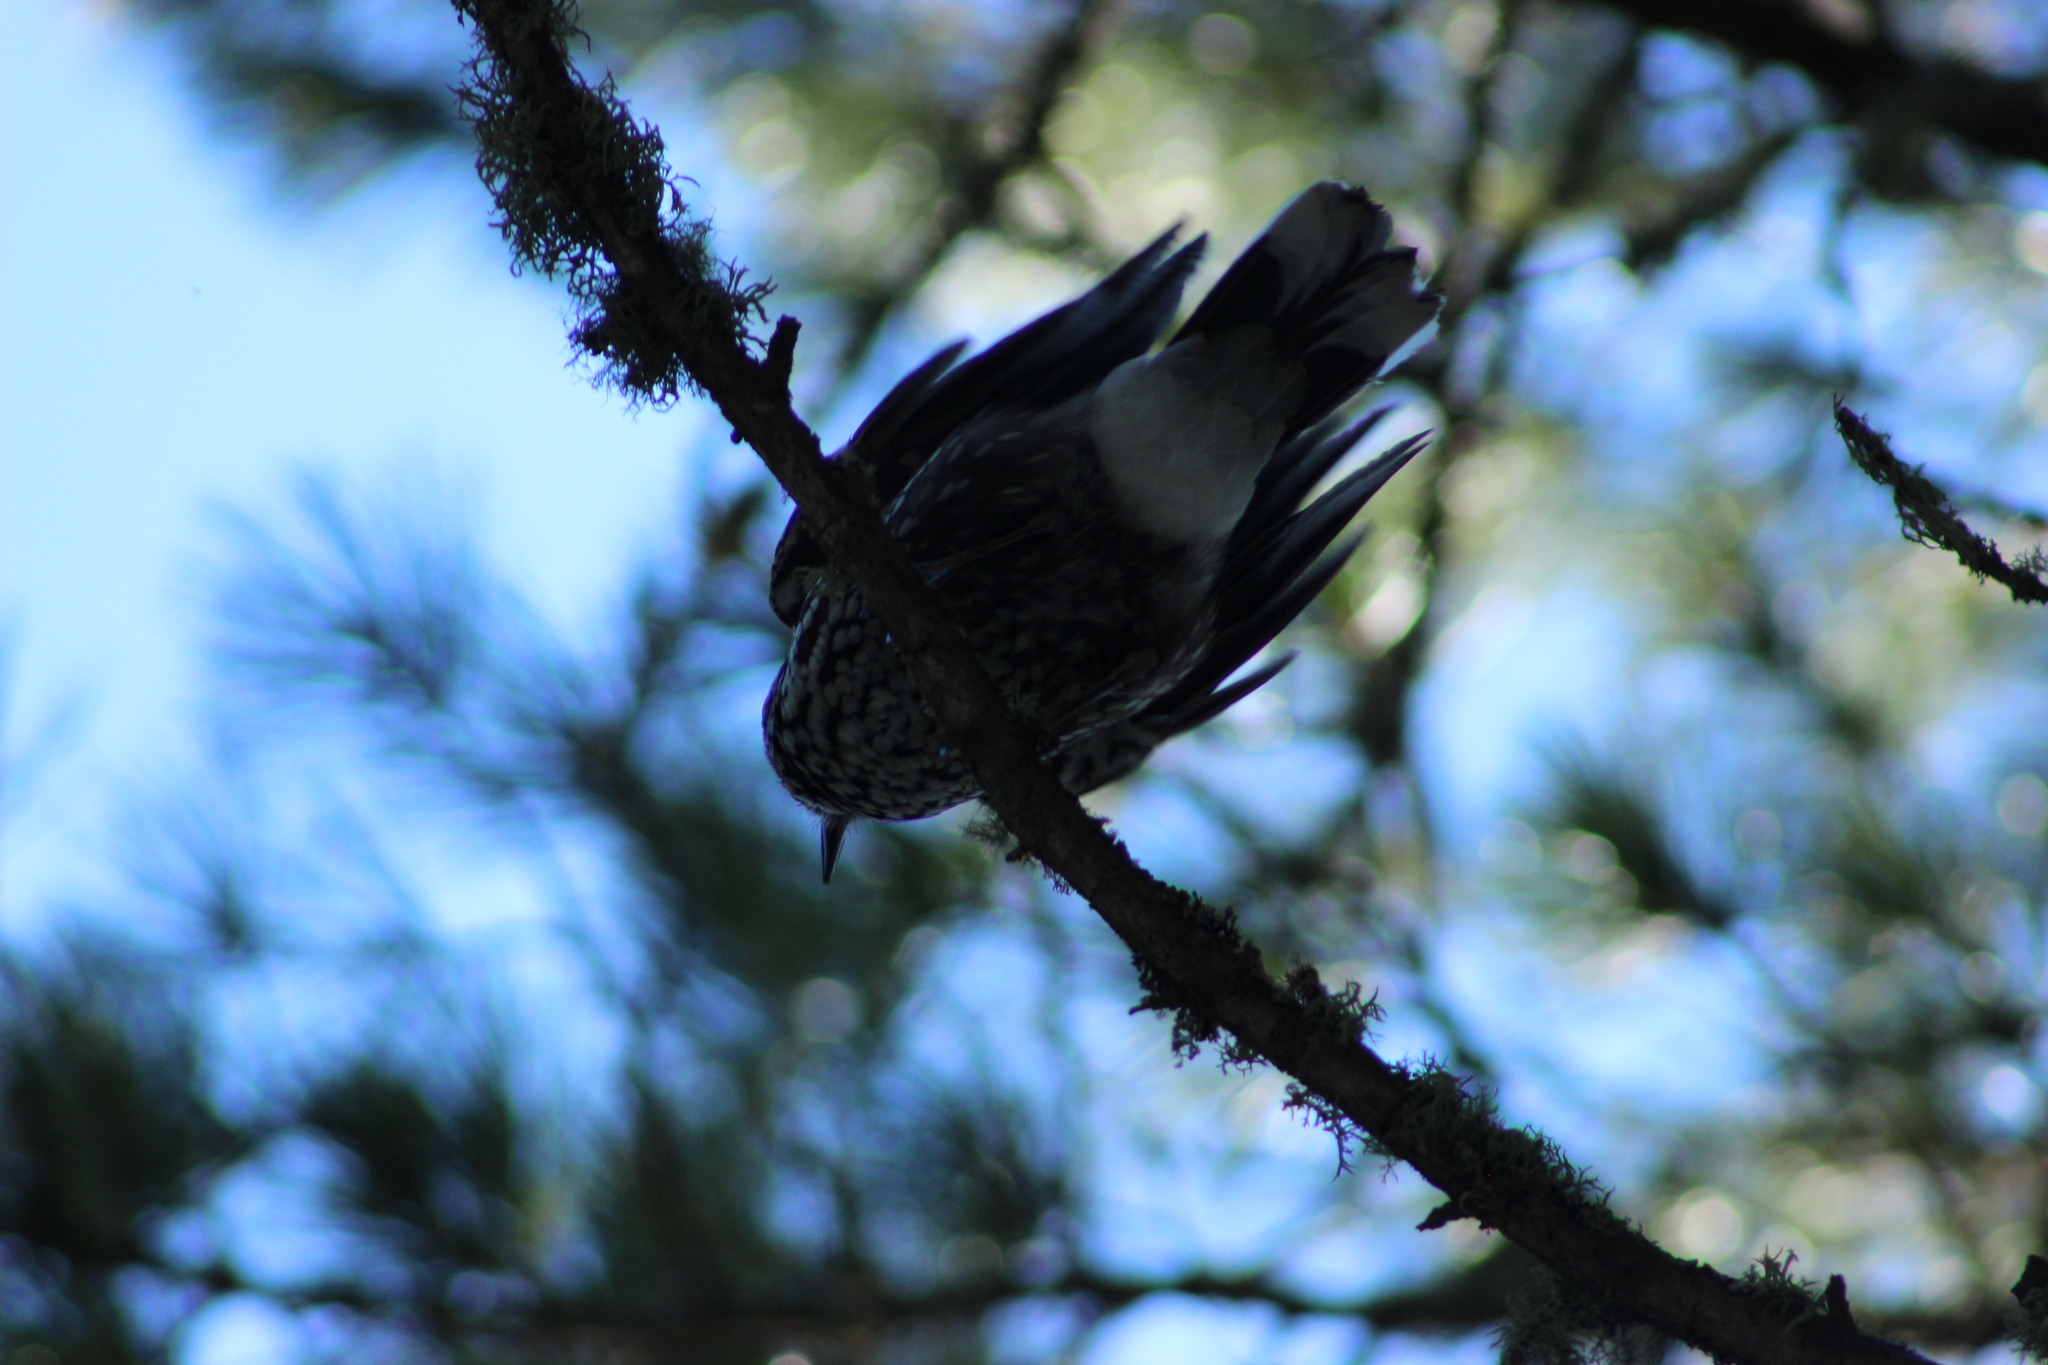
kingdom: Animalia
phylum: Chordata
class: Aves
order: Passeriformes
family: Corvidae
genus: Nucifraga
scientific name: Nucifraga caryocatactes
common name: Spotted nutcracker
